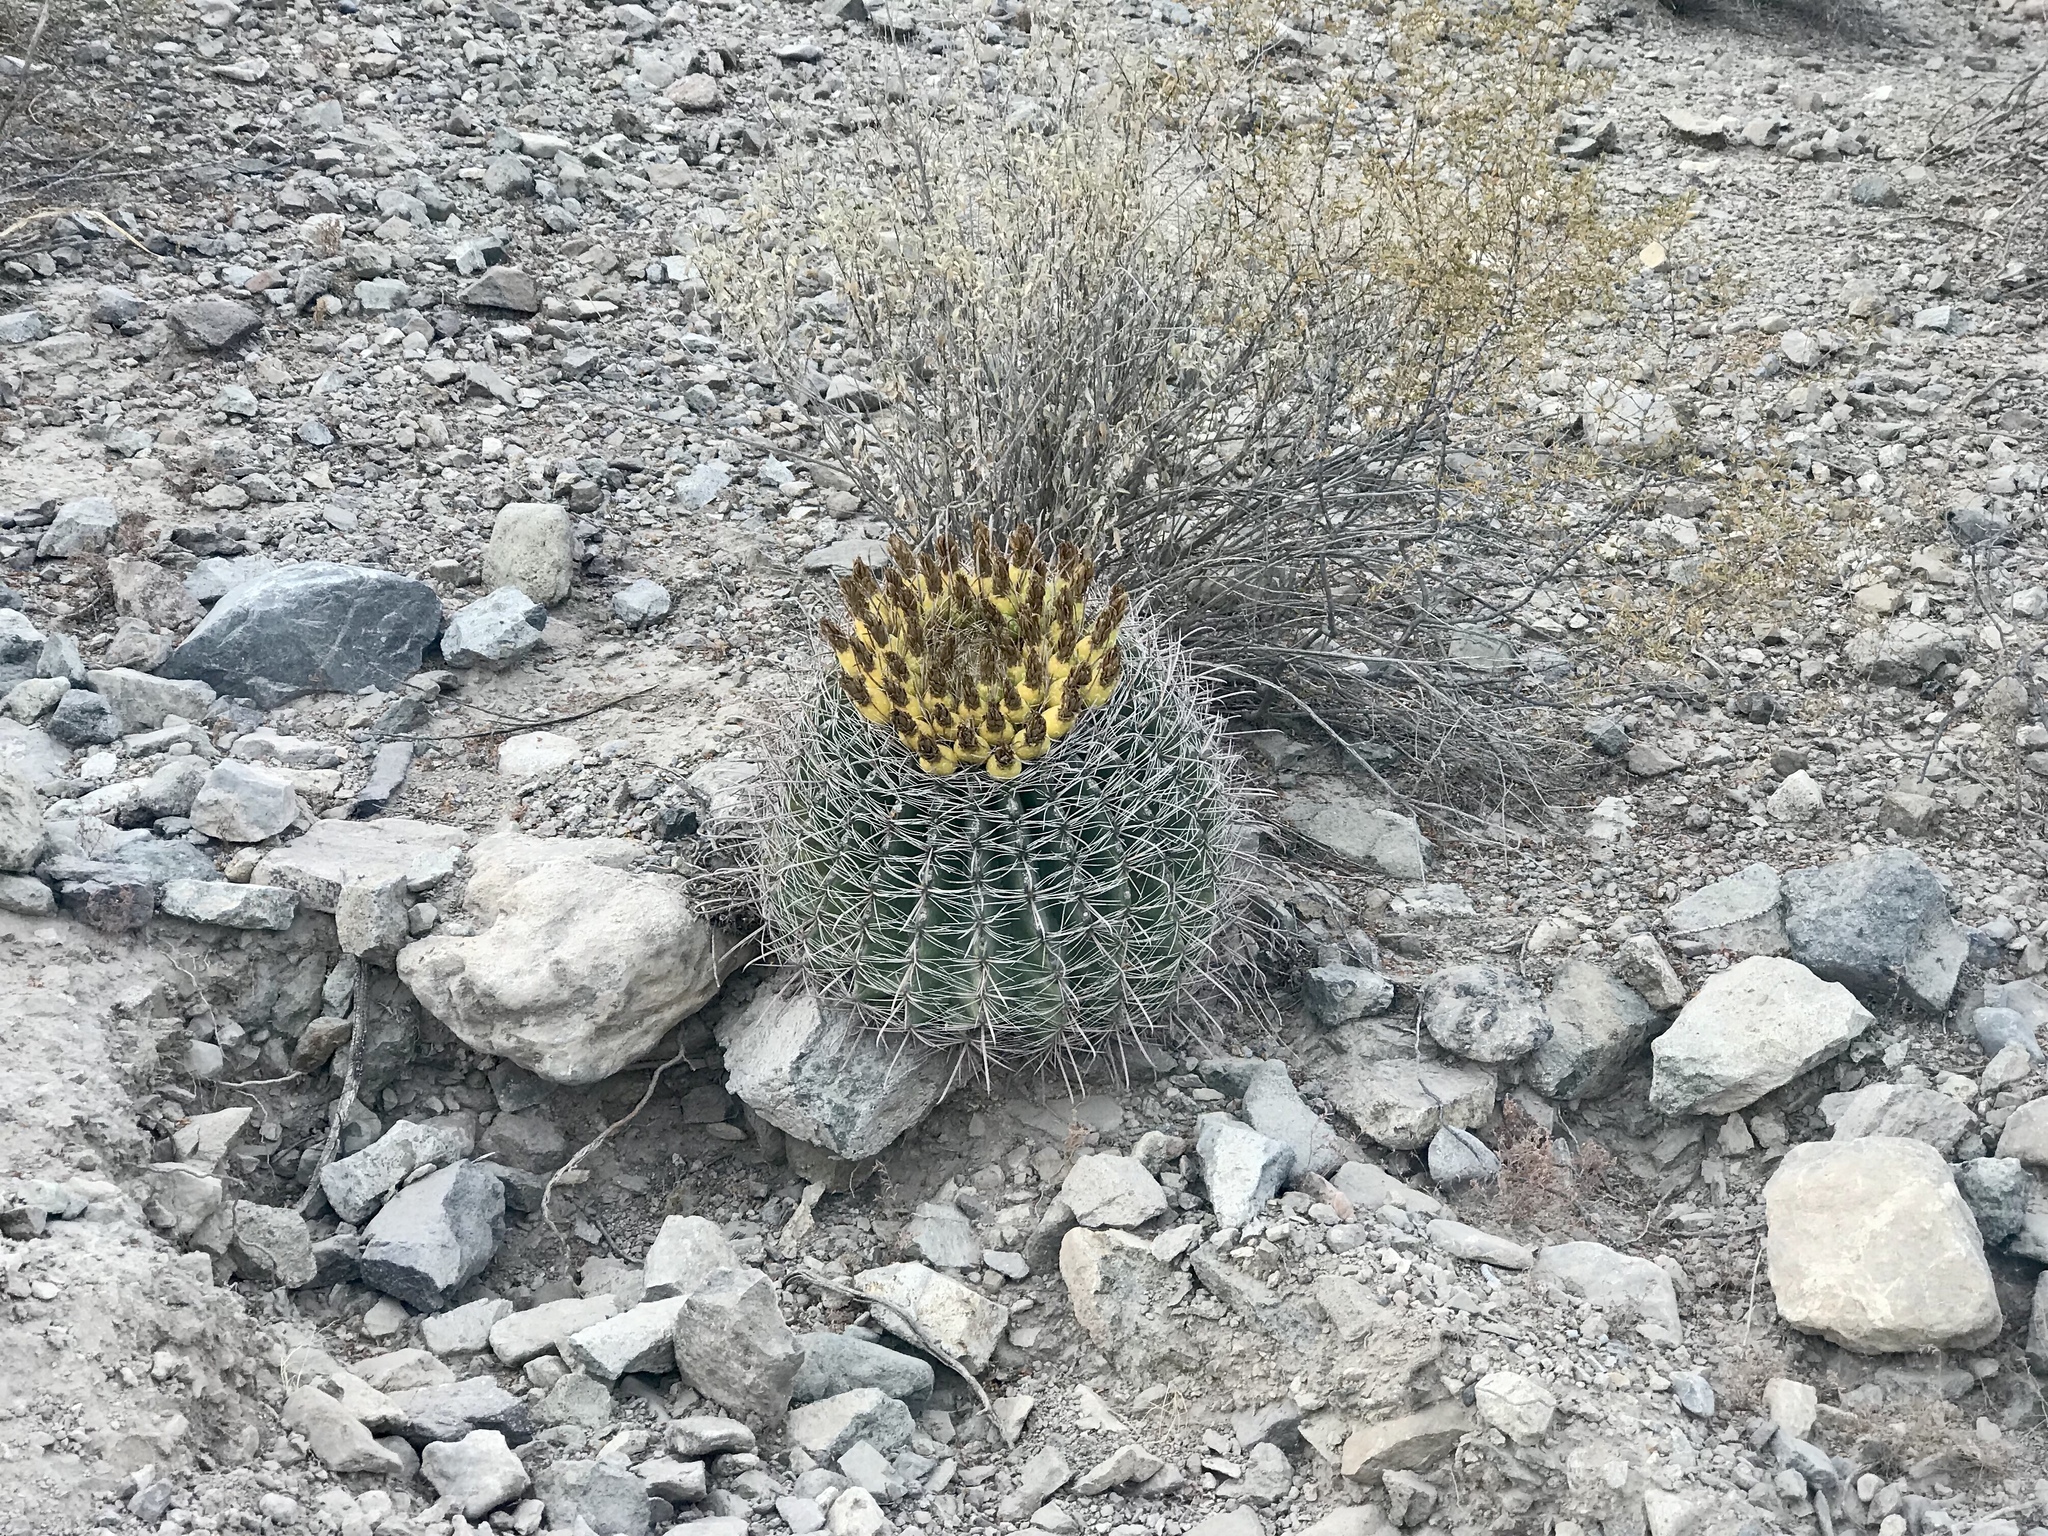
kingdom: Plantae
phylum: Tracheophyta
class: Magnoliopsida
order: Caryophyllales
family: Cactaceae
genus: Ferocactus
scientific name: Ferocactus wislizeni
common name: Candy barrel cactus
